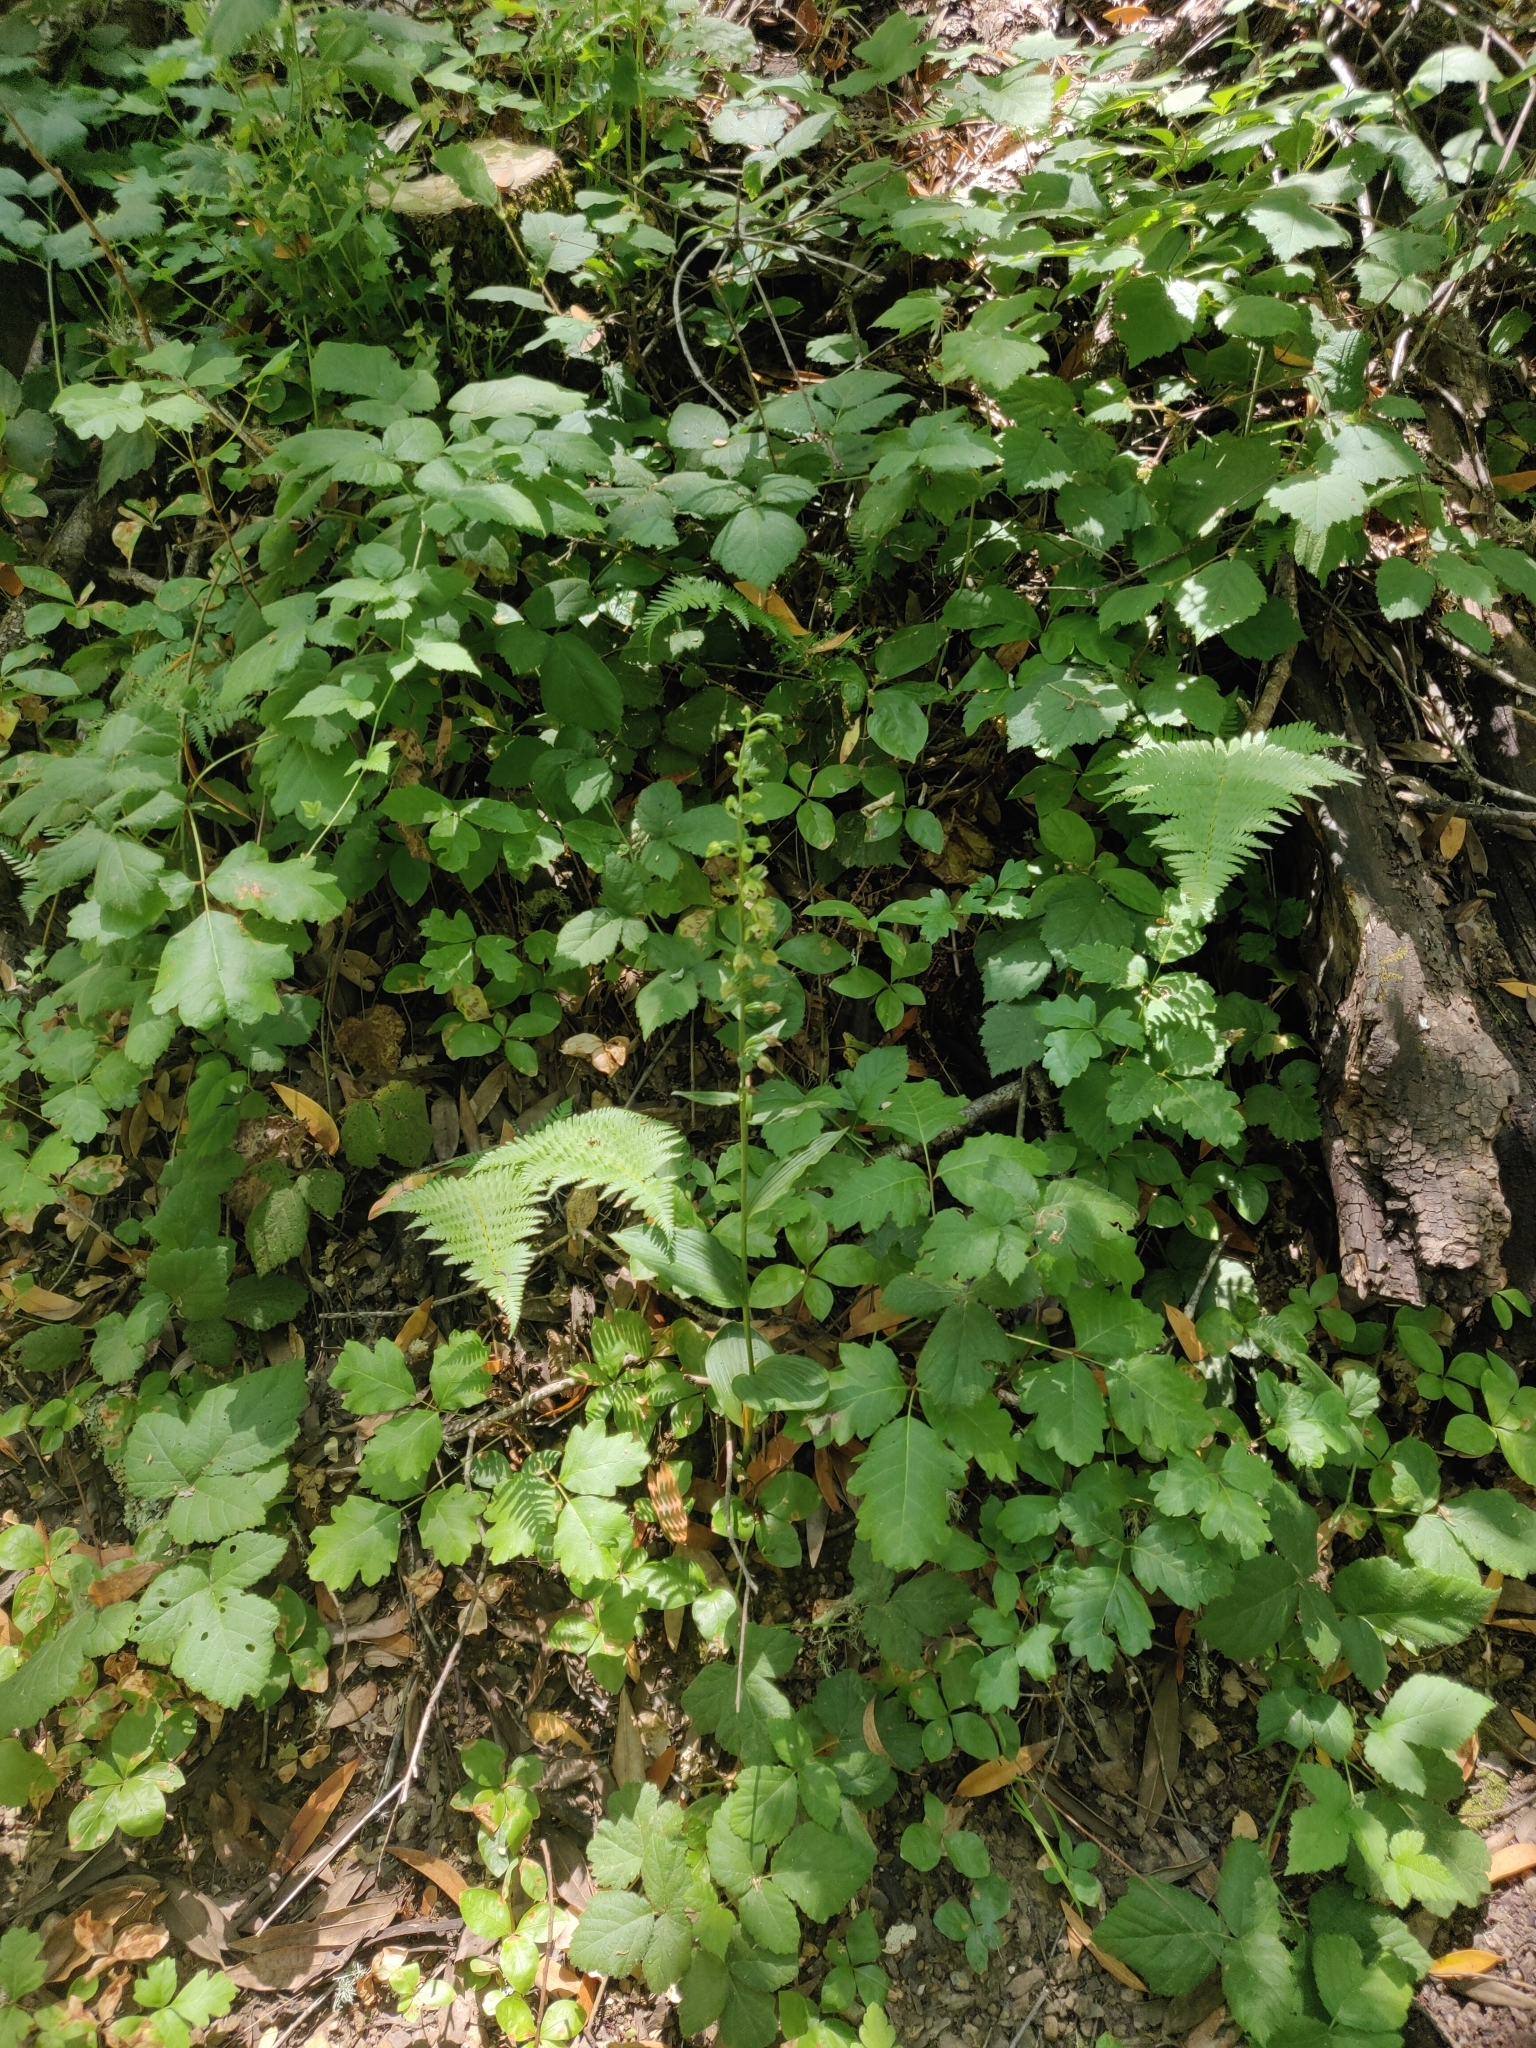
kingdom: Plantae
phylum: Tracheophyta
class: Liliopsida
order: Asparagales
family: Orchidaceae
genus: Epipactis
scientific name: Epipactis helleborine
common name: Broad-leaved helleborine
